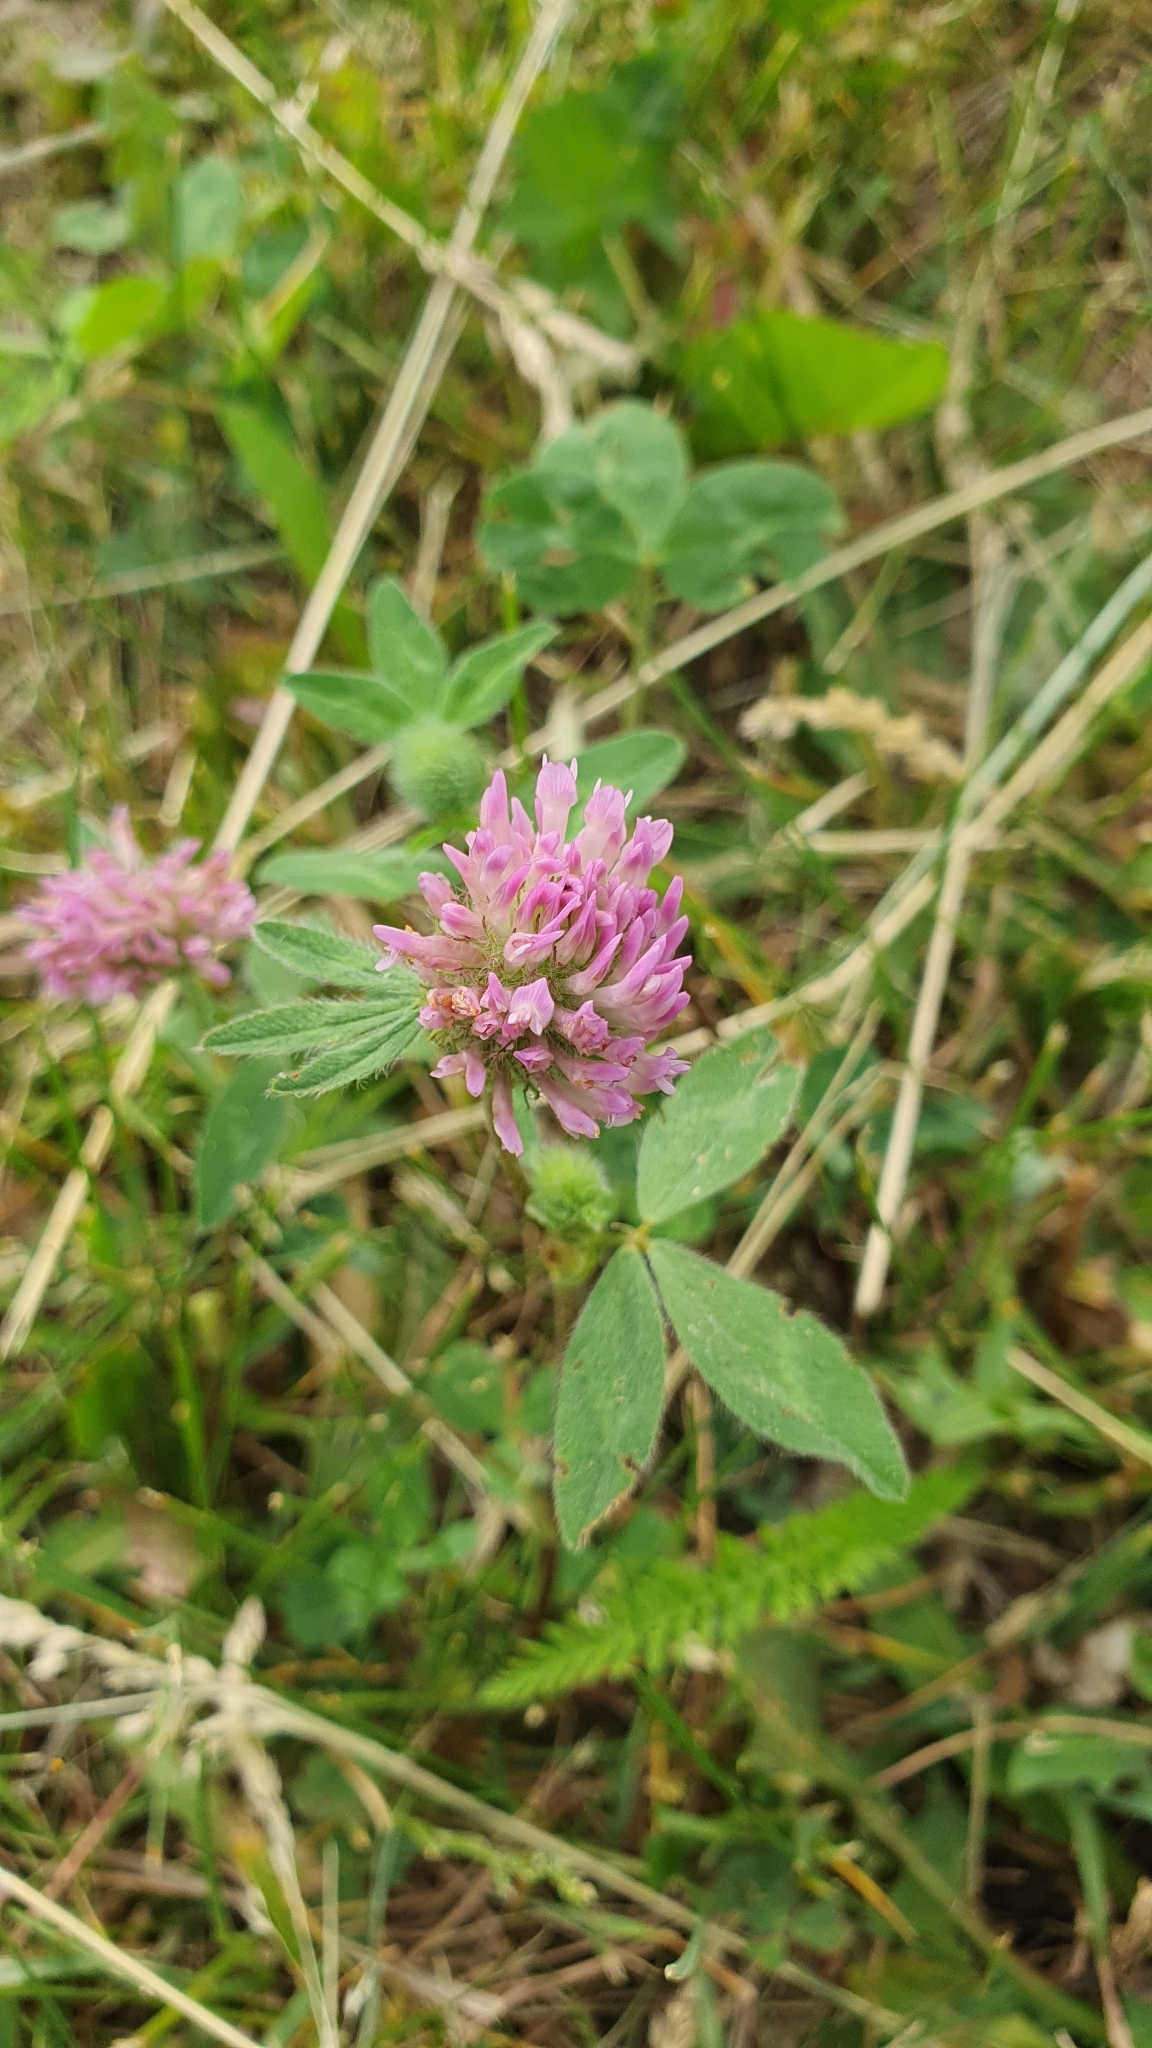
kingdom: Plantae
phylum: Tracheophyta
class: Magnoliopsida
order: Fabales
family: Fabaceae
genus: Trifolium
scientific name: Trifolium pratense
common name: Red clover
